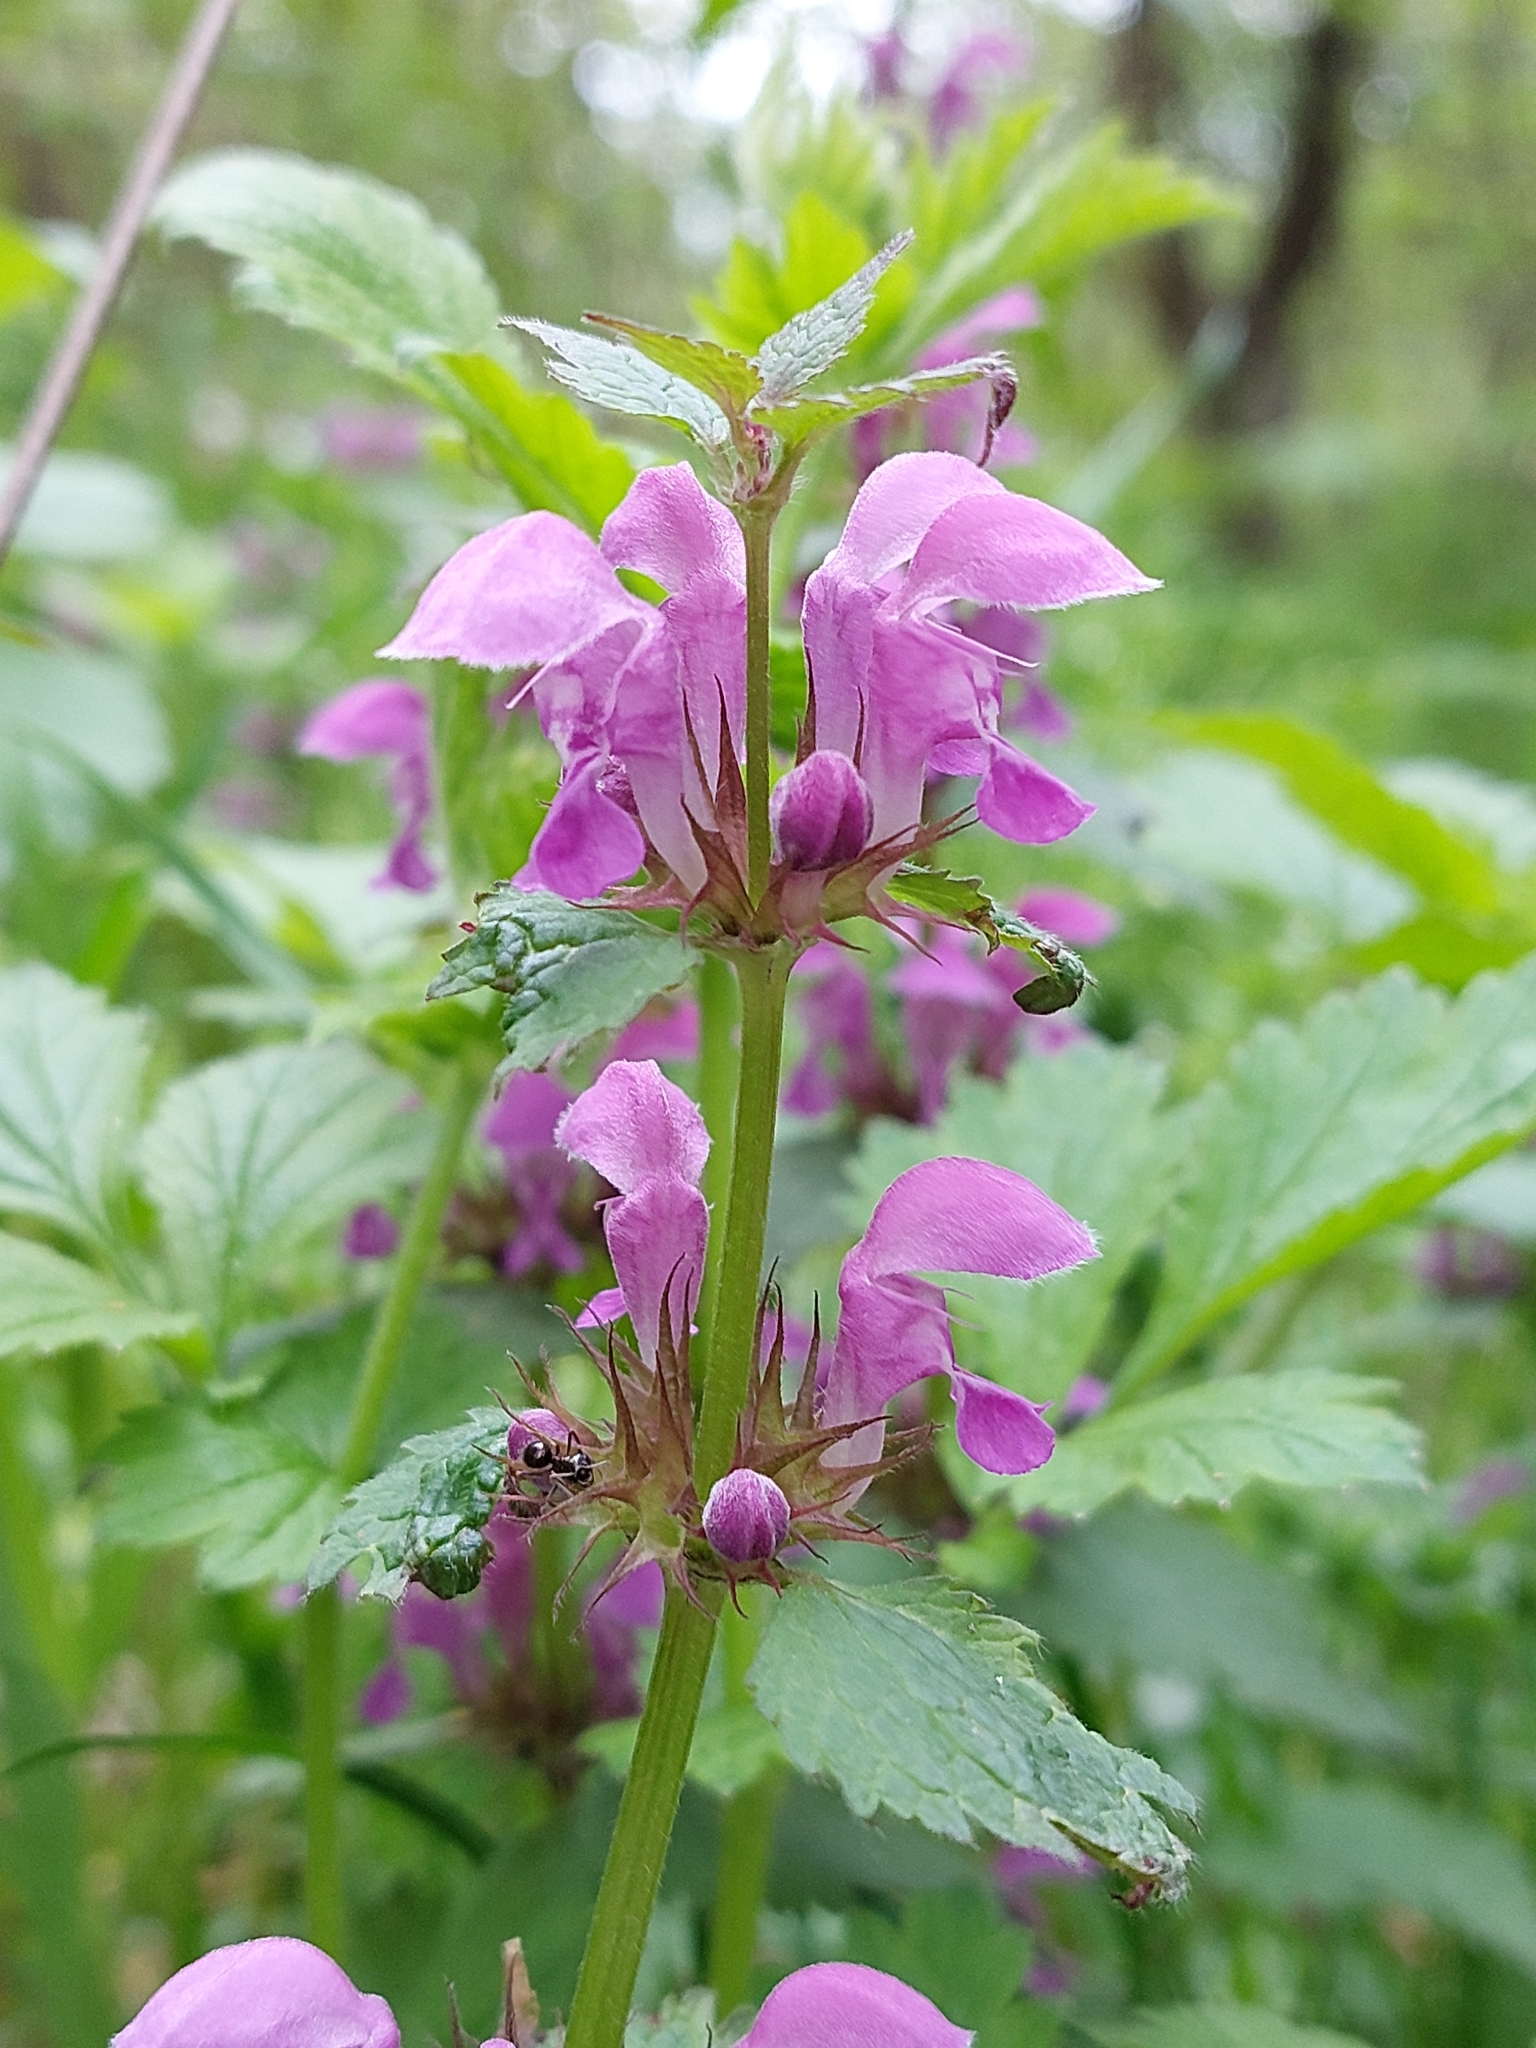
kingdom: Plantae
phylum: Tracheophyta
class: Magnoliopsida
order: Lamiales
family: Lamiaceae
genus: Lamium
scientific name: Lamium maculatum
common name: Spotted dead-nettle
